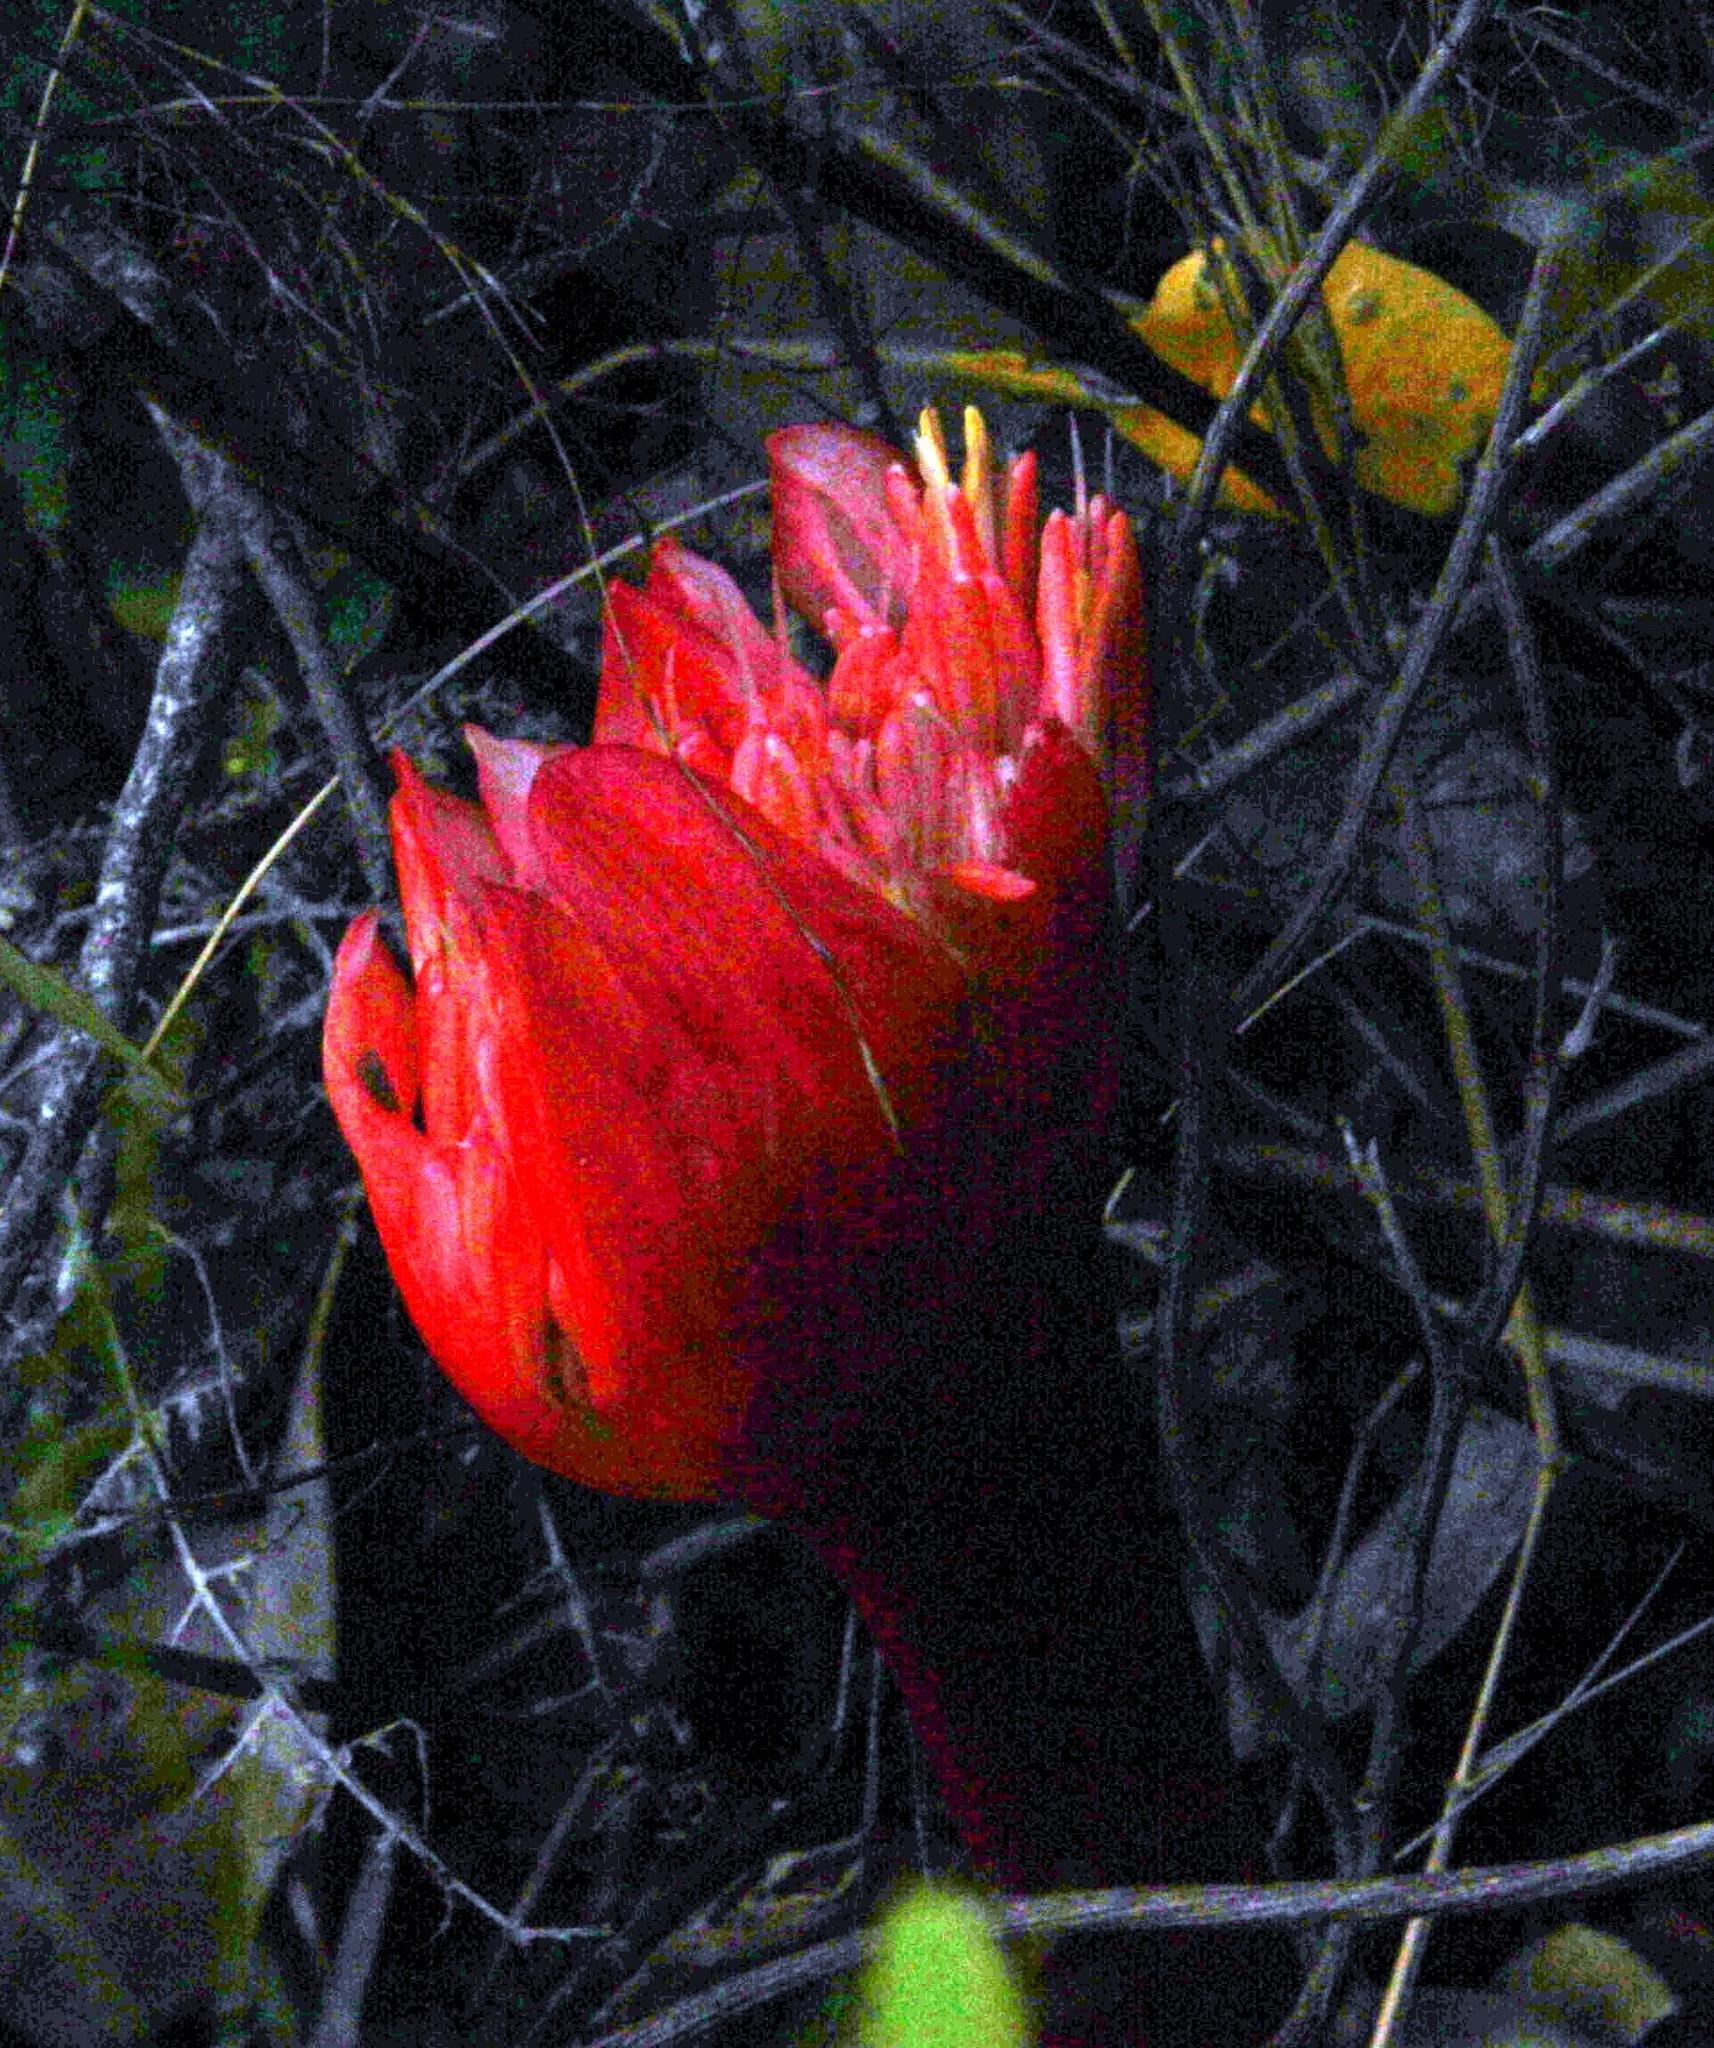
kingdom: Plantae
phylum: Tracheophyta
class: Liliopsida
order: Asparagales
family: Amaryllidaceae
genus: Haemanthus
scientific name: Haemanthus sanguineus
